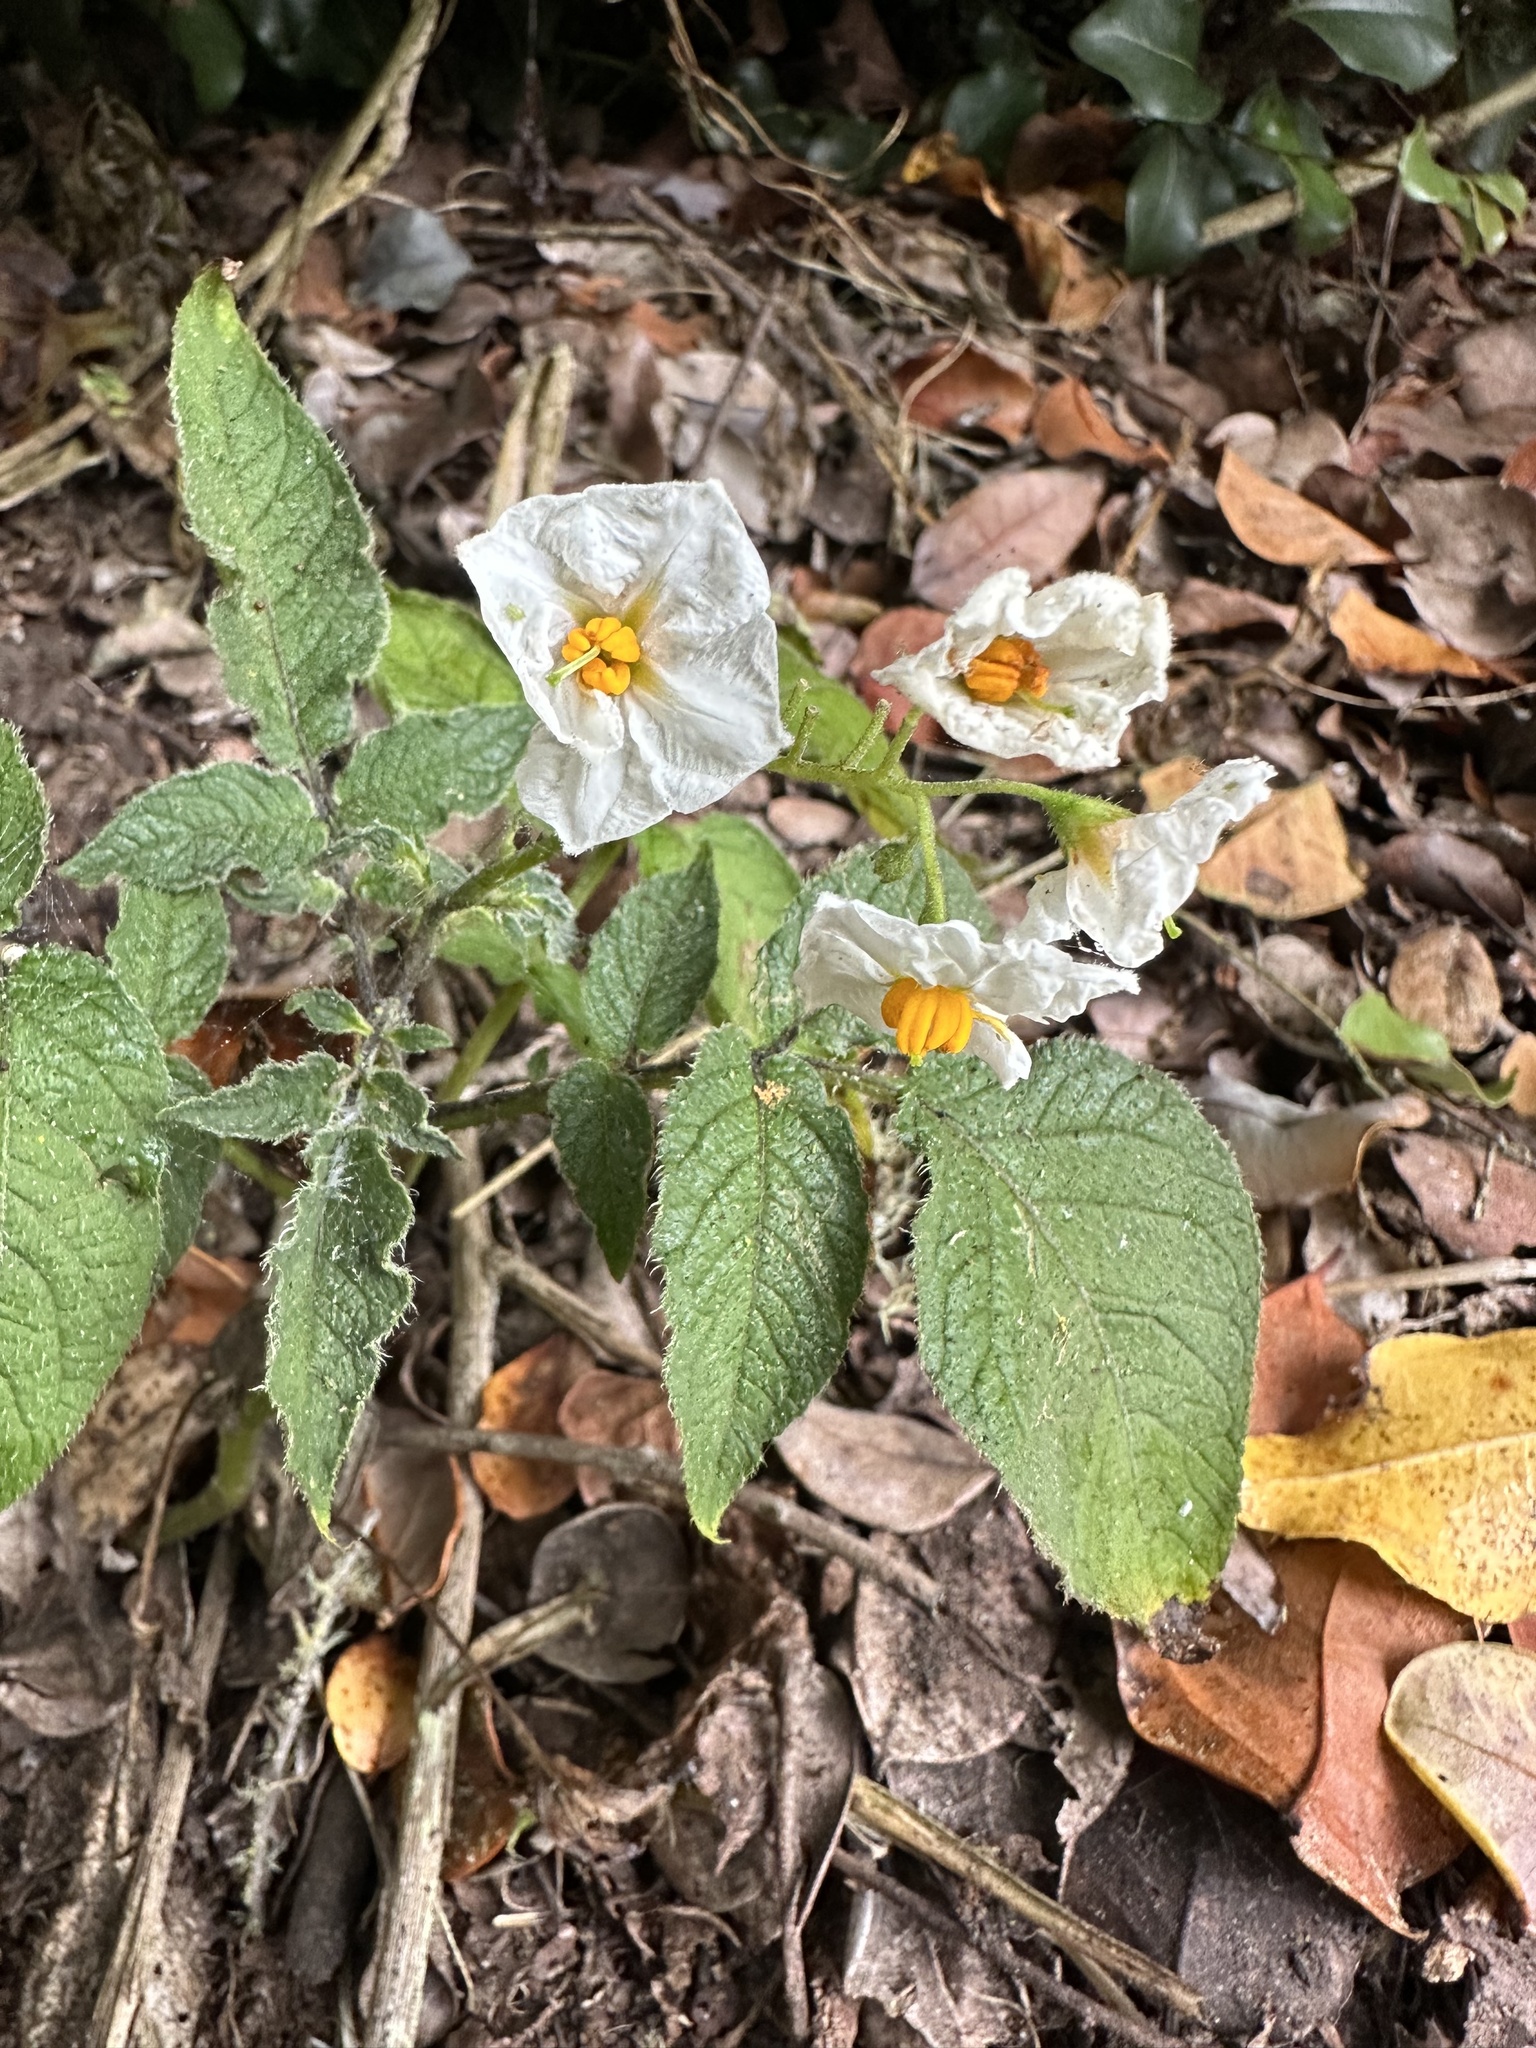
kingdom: Plantae
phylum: Tracheophyta
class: Magnoliopsida
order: Solanales
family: Solanaceae
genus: Solanum
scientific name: Solanum maglia
